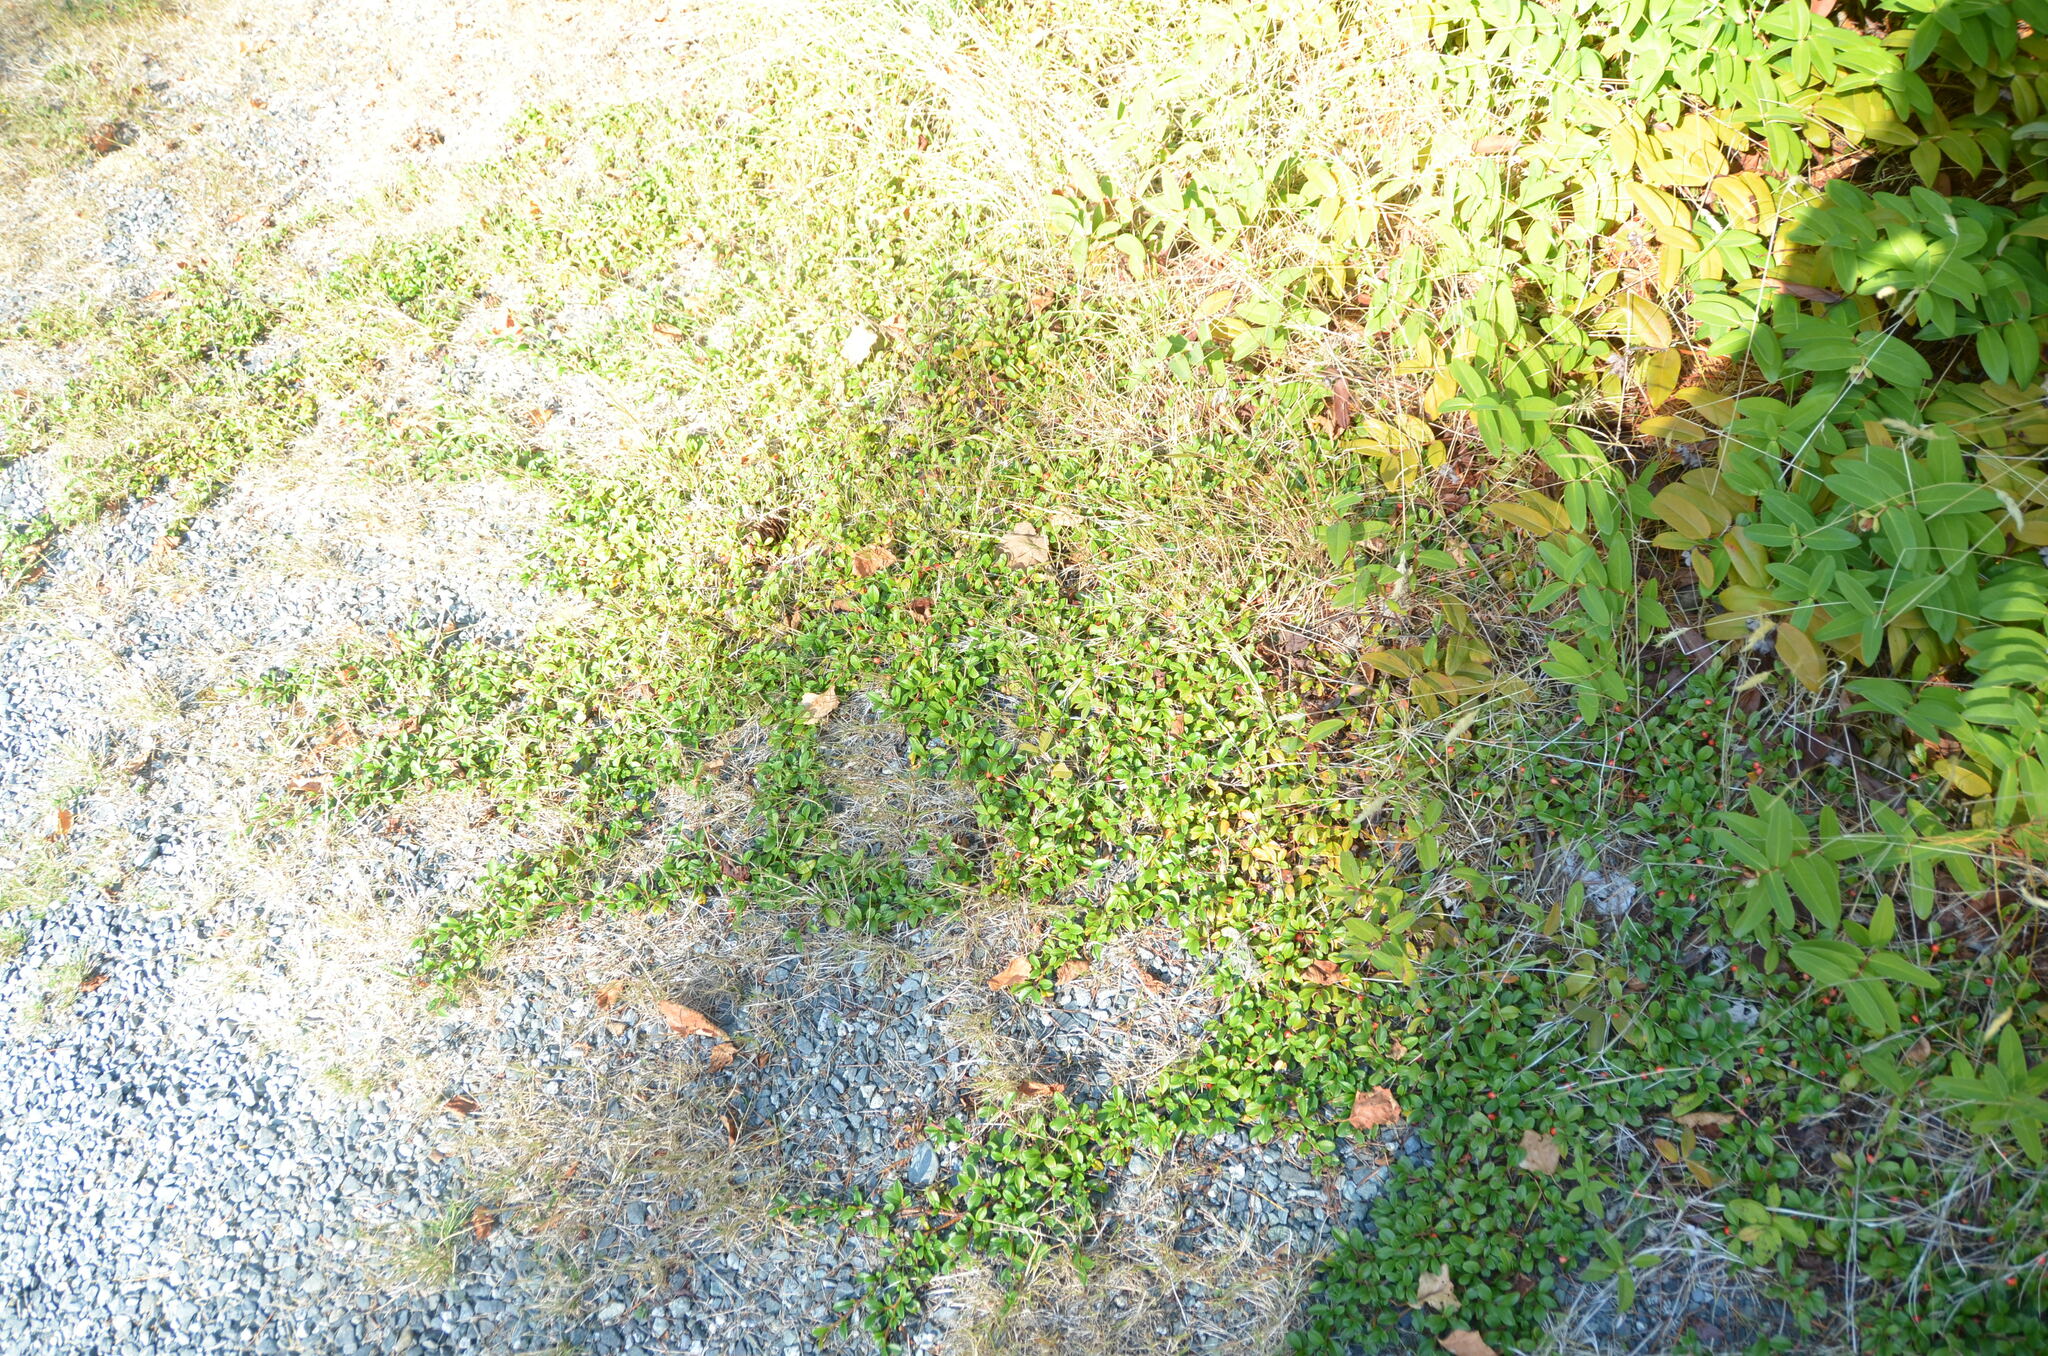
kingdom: Plantae
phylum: Tracheophyta
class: Magnoliopsida
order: Ericales
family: Ericaceae
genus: Arctostaphylos
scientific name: Arctostaphylos uva-ursi
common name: Bearberry
